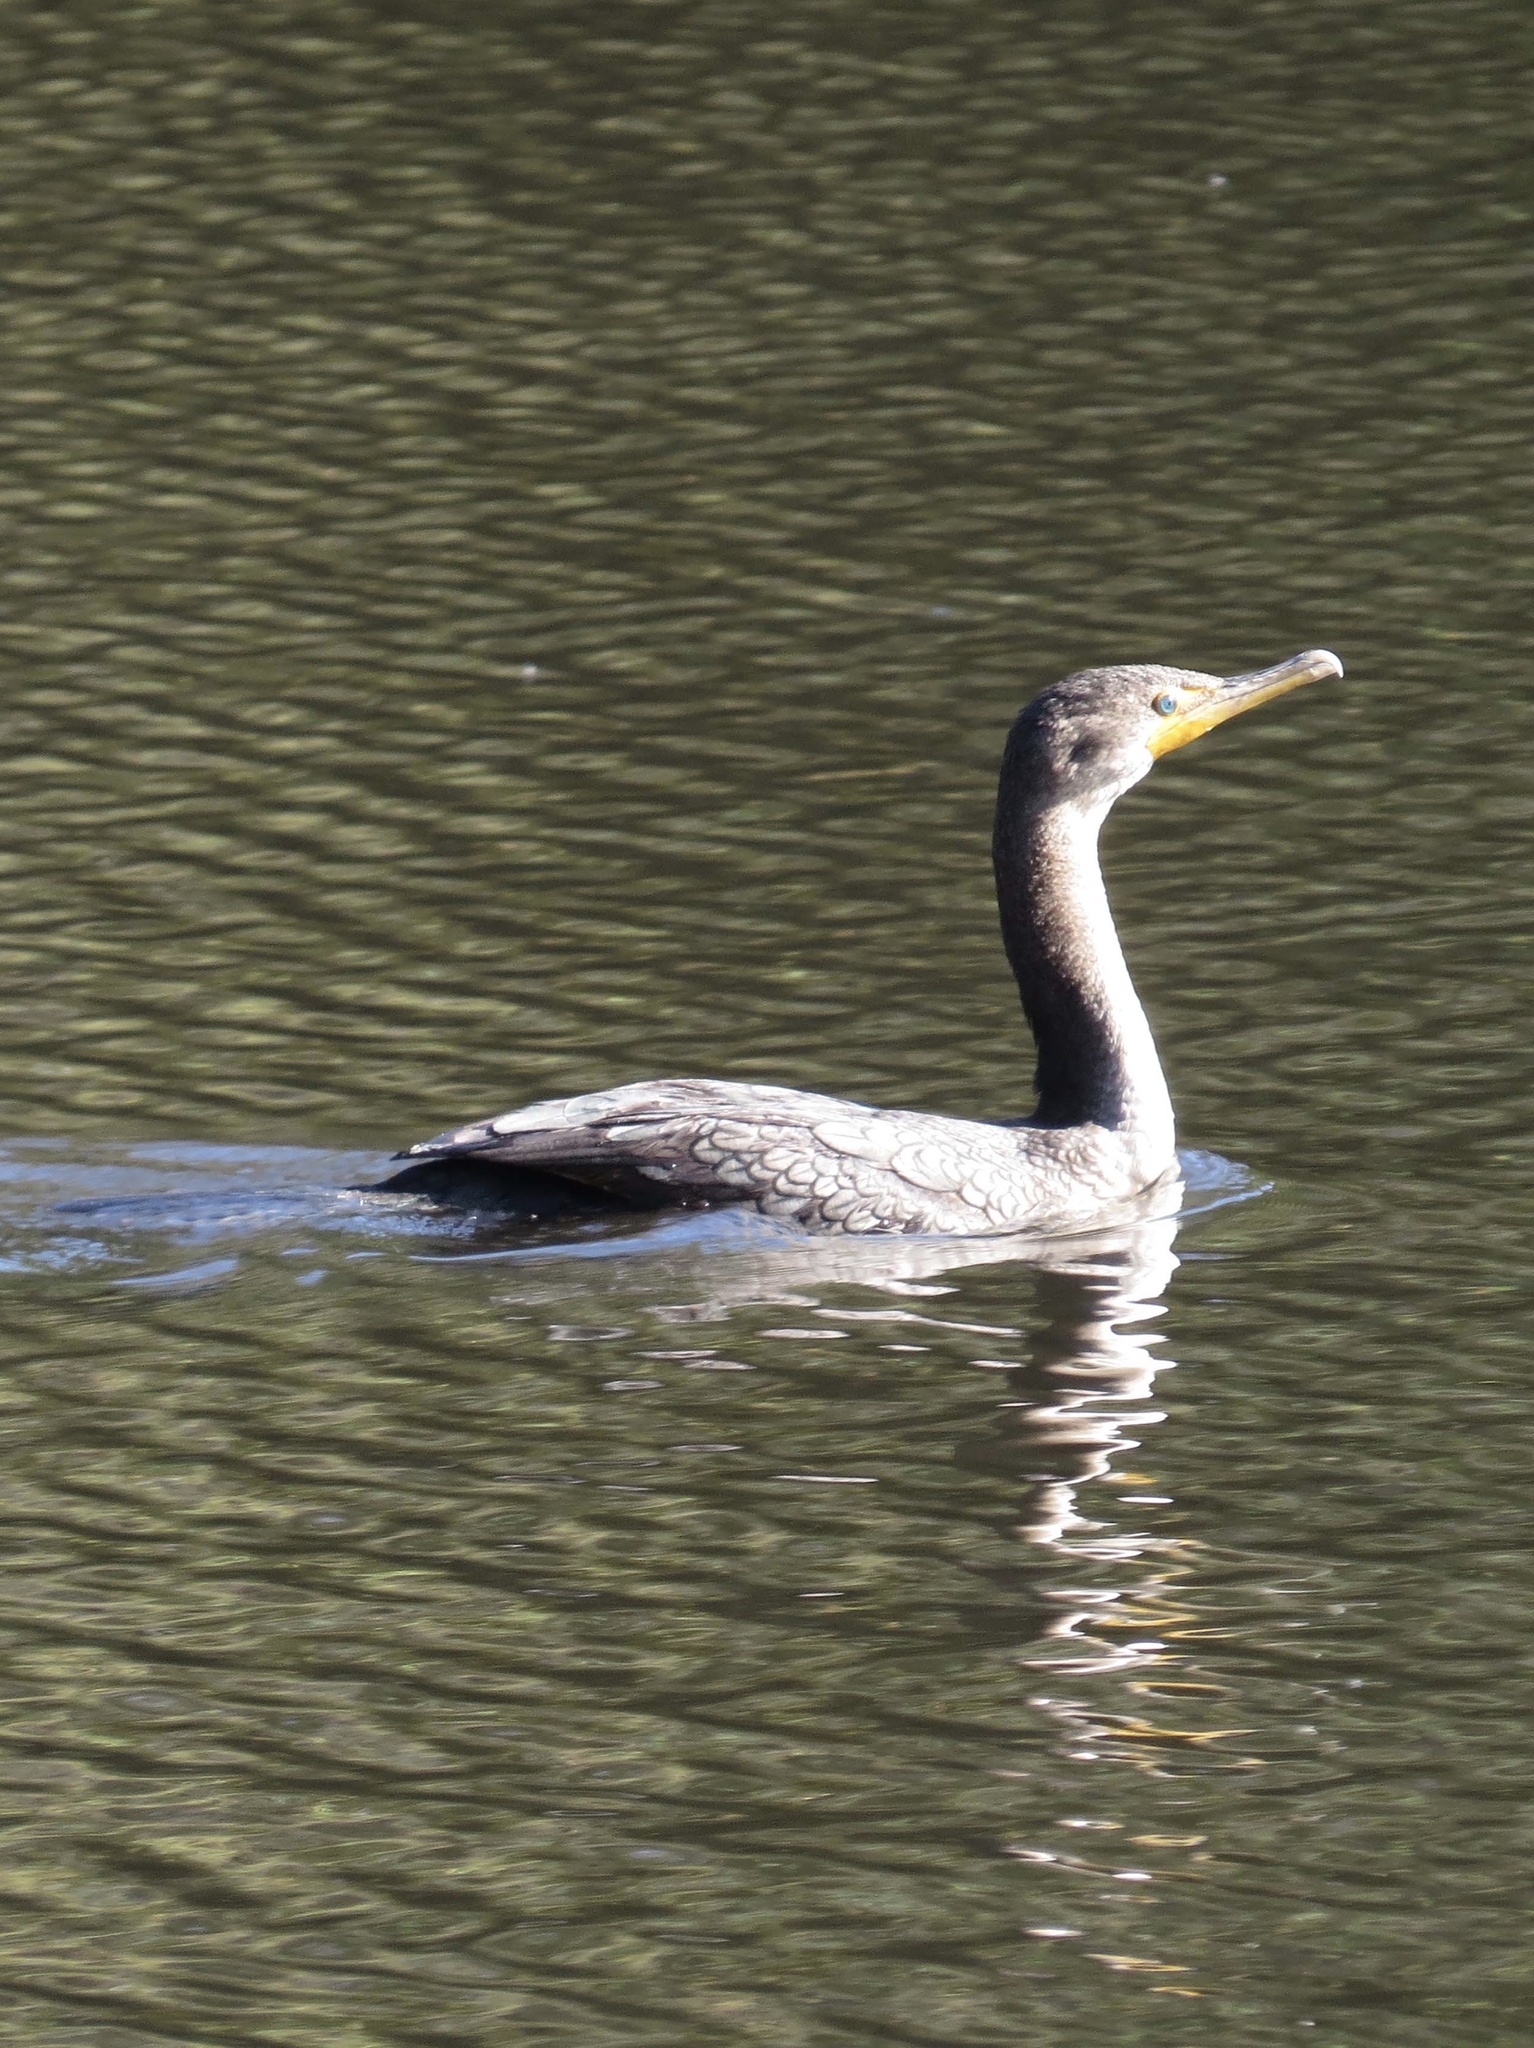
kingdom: Animalia
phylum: Chordata
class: Aves
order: Suliformes
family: Phalacrocoracidae
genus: Phalacrocorax
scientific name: Phalacrocorax auritus
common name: Double-crested cormorant
